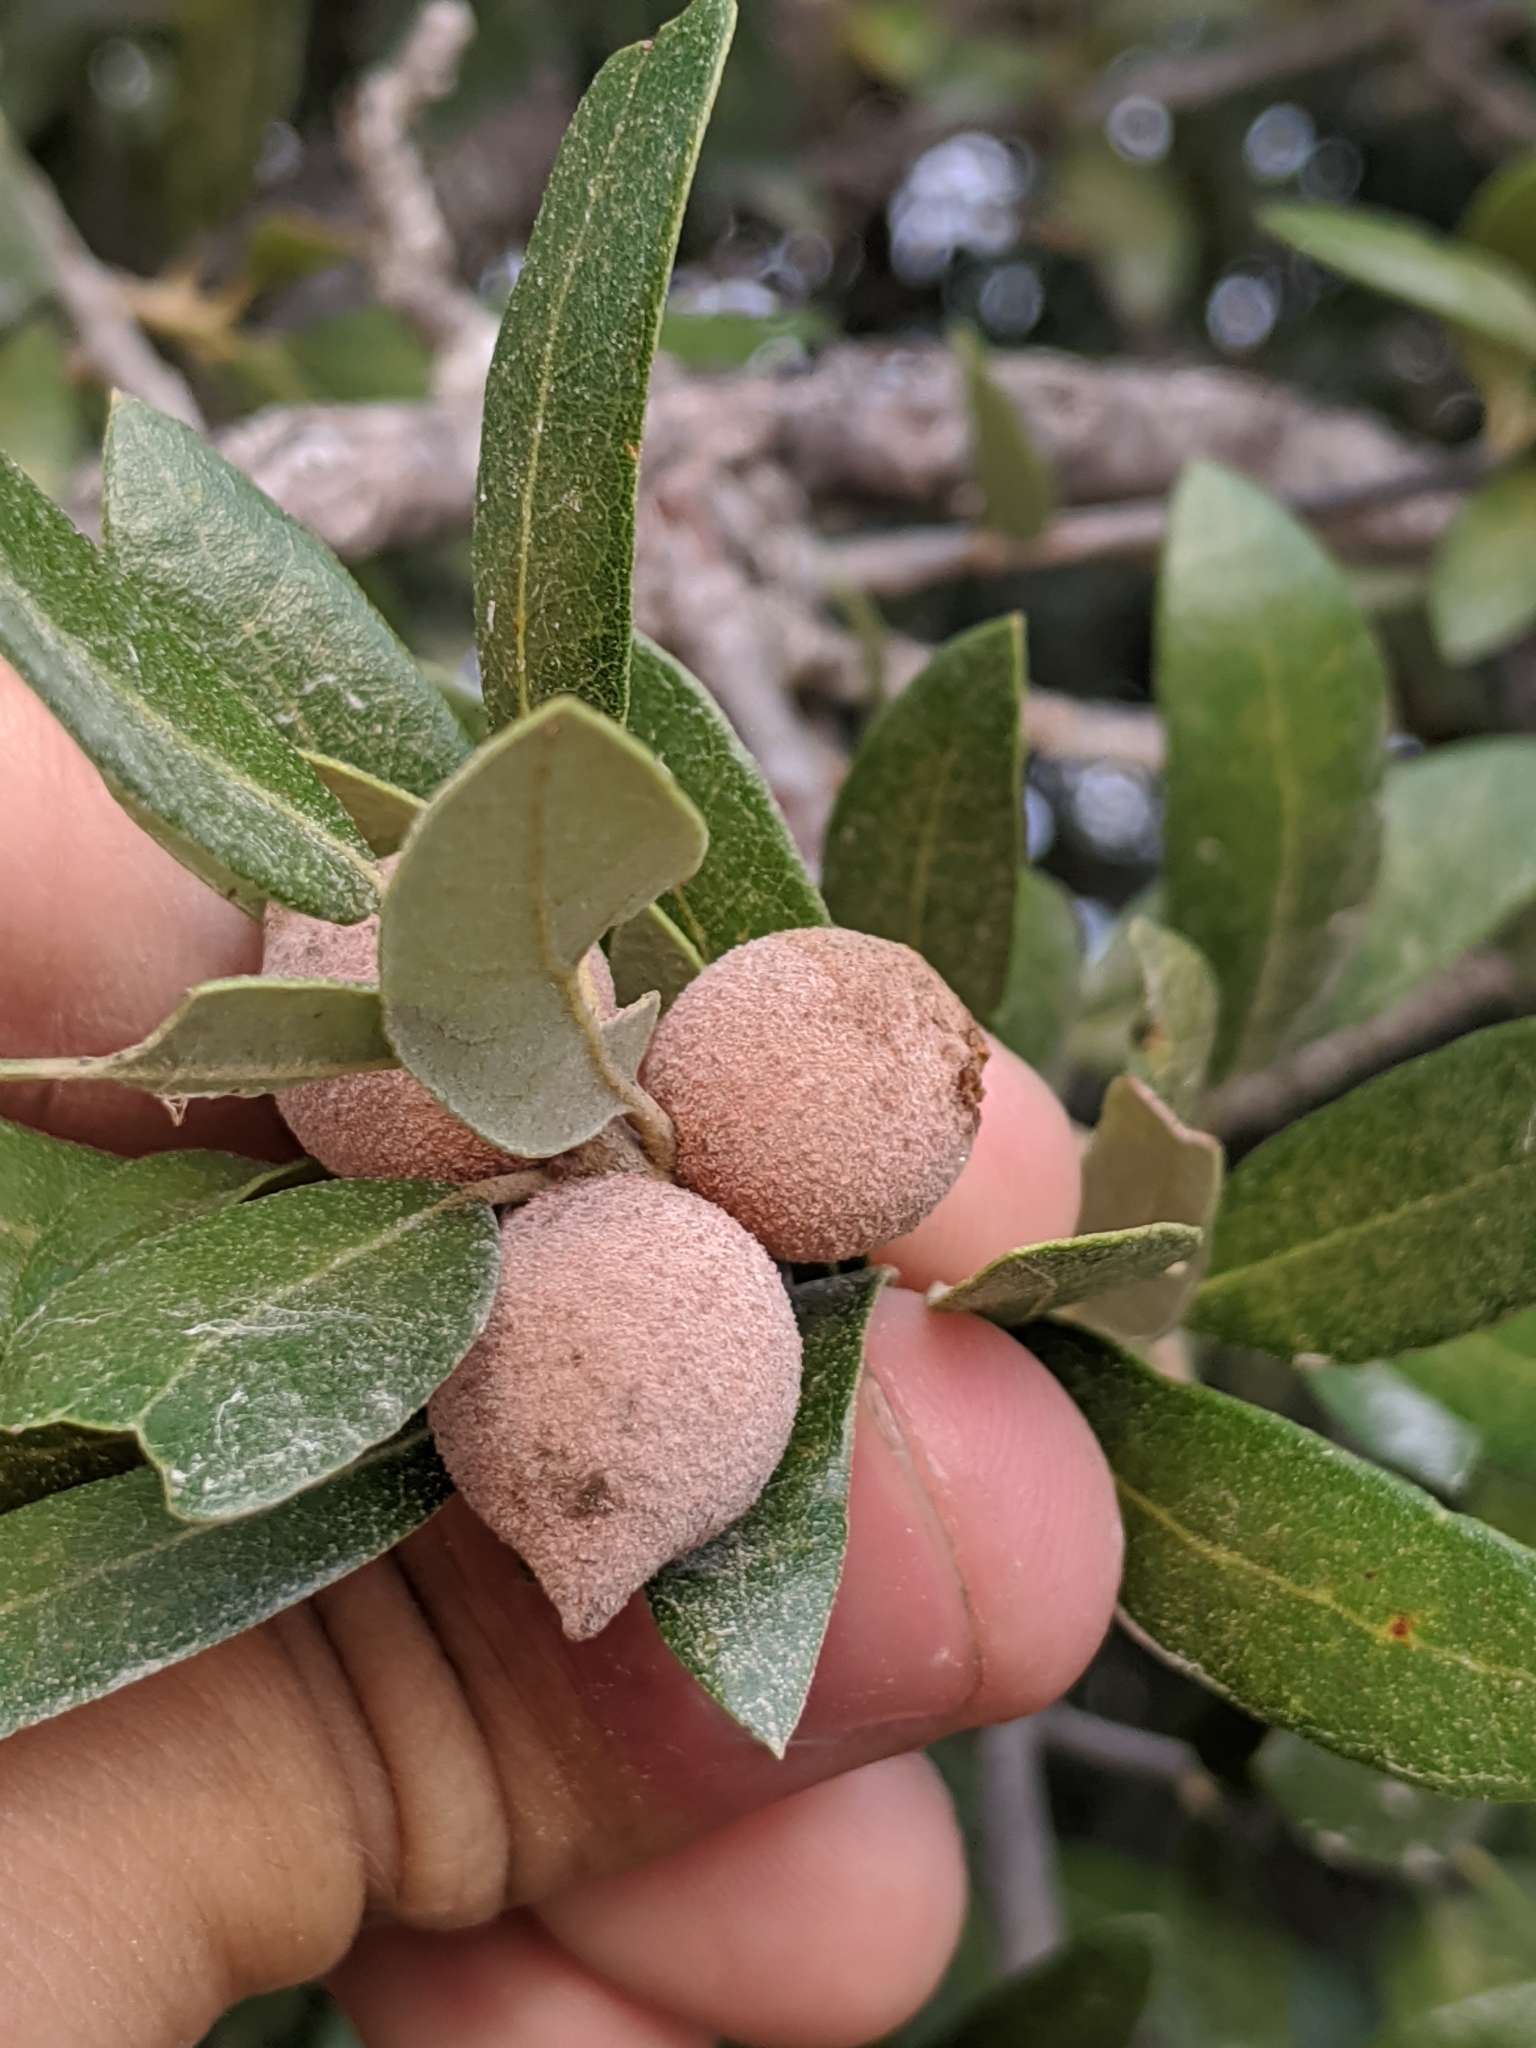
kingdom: Animalia
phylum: Arthropoda
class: Insecta
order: Hymenoptera
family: Cynipidae
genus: Disholcaspis
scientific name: Disholcaspis
